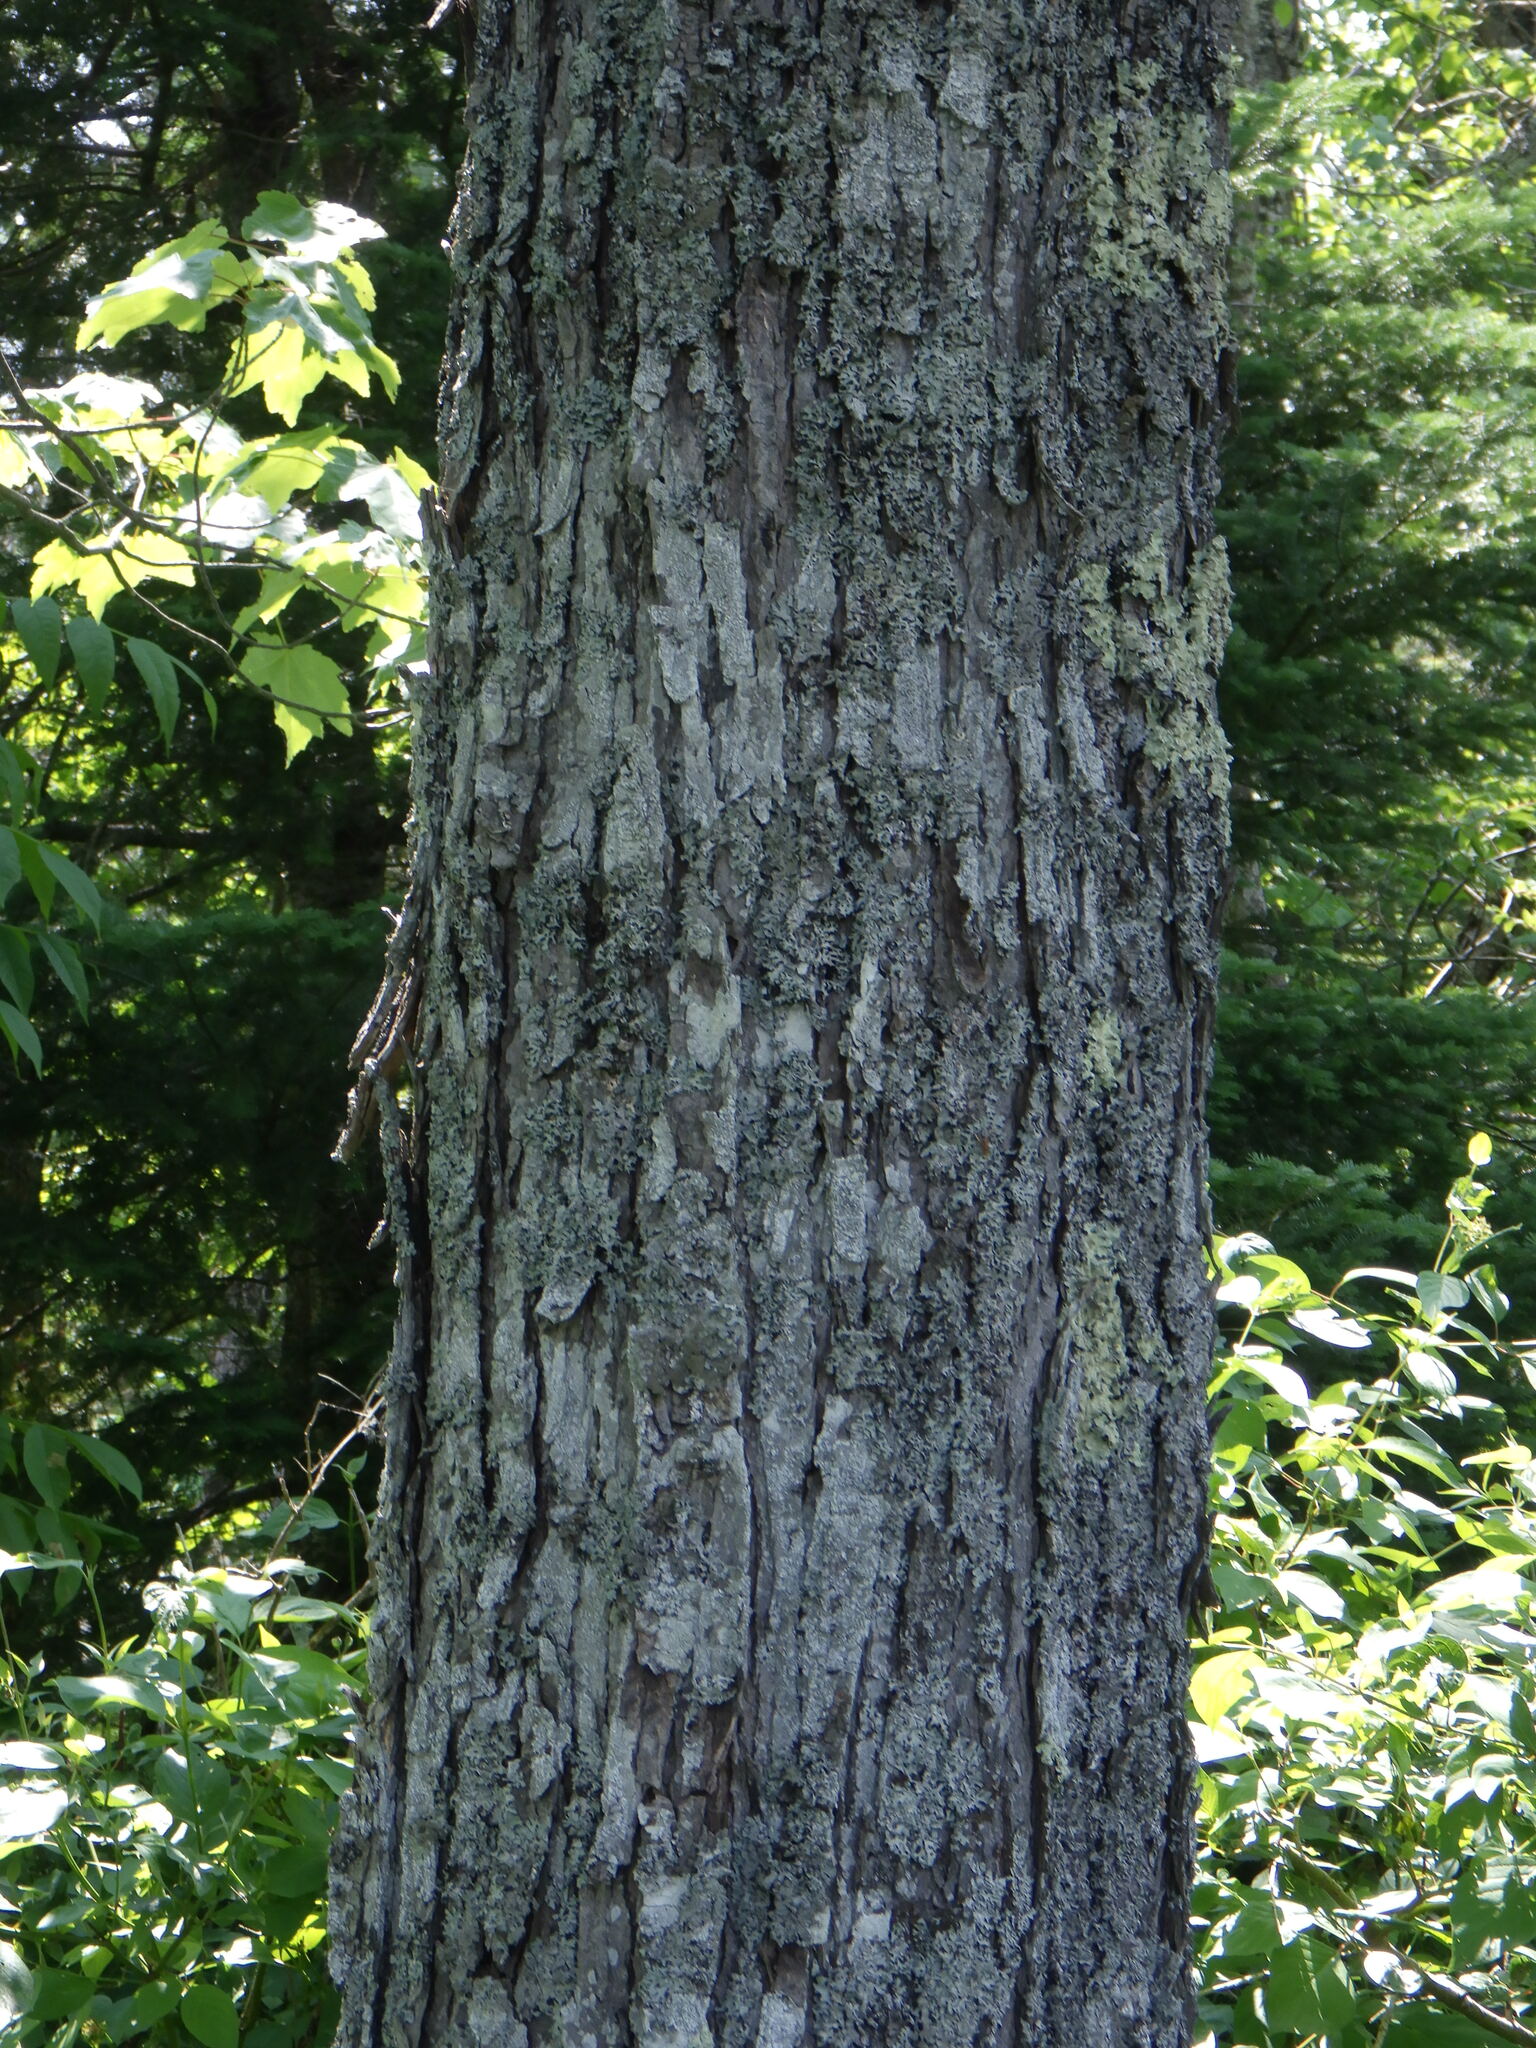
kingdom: Plantae
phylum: Tracheophyta
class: Magnoliopsida
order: Sapindales
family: Sapindaceae
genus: Acer
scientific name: Acer rubrum
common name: Red maple
